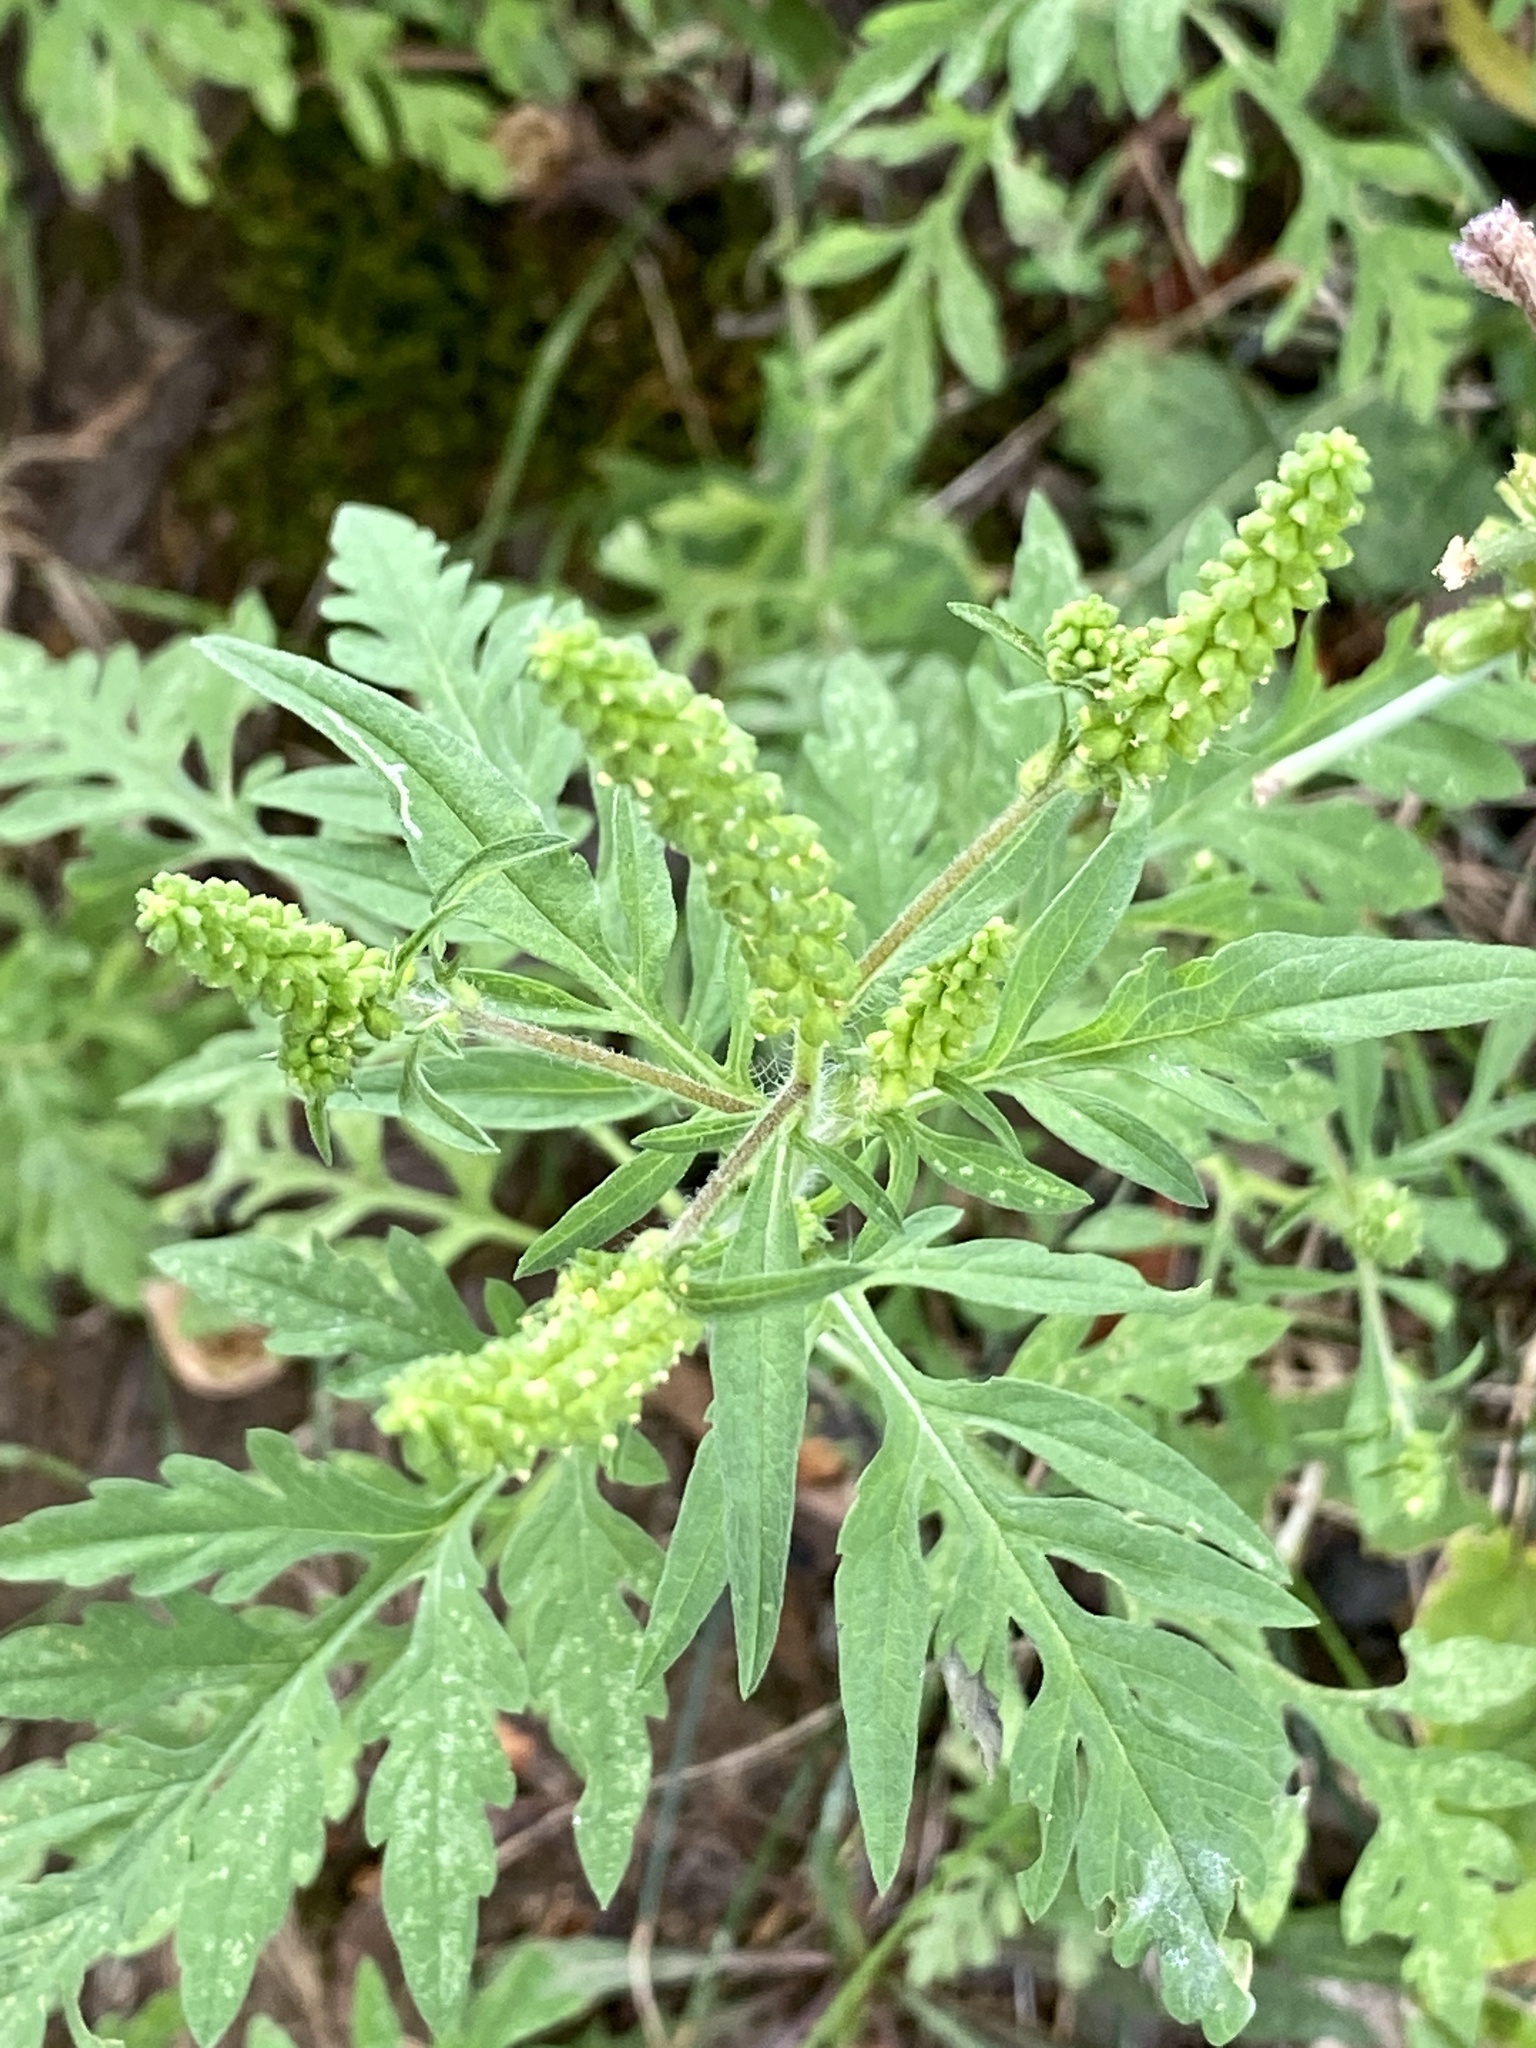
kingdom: Plantae
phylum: Tracheophyta
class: Magnoliopsida
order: Asterales
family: Asteraceae
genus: Ambrosia
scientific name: Ambrosia artemisiifolia
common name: Annual ragweed
